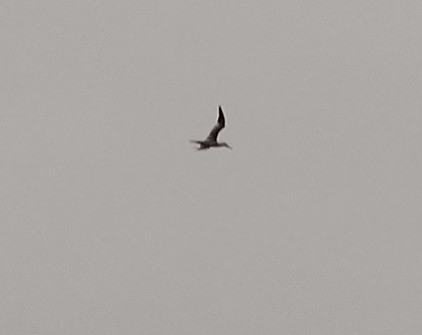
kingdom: Animalia
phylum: Chordata
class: Aves
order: Suliformes
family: Sulidae
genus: Morus
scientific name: Morus bassanus
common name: Northern gannet
